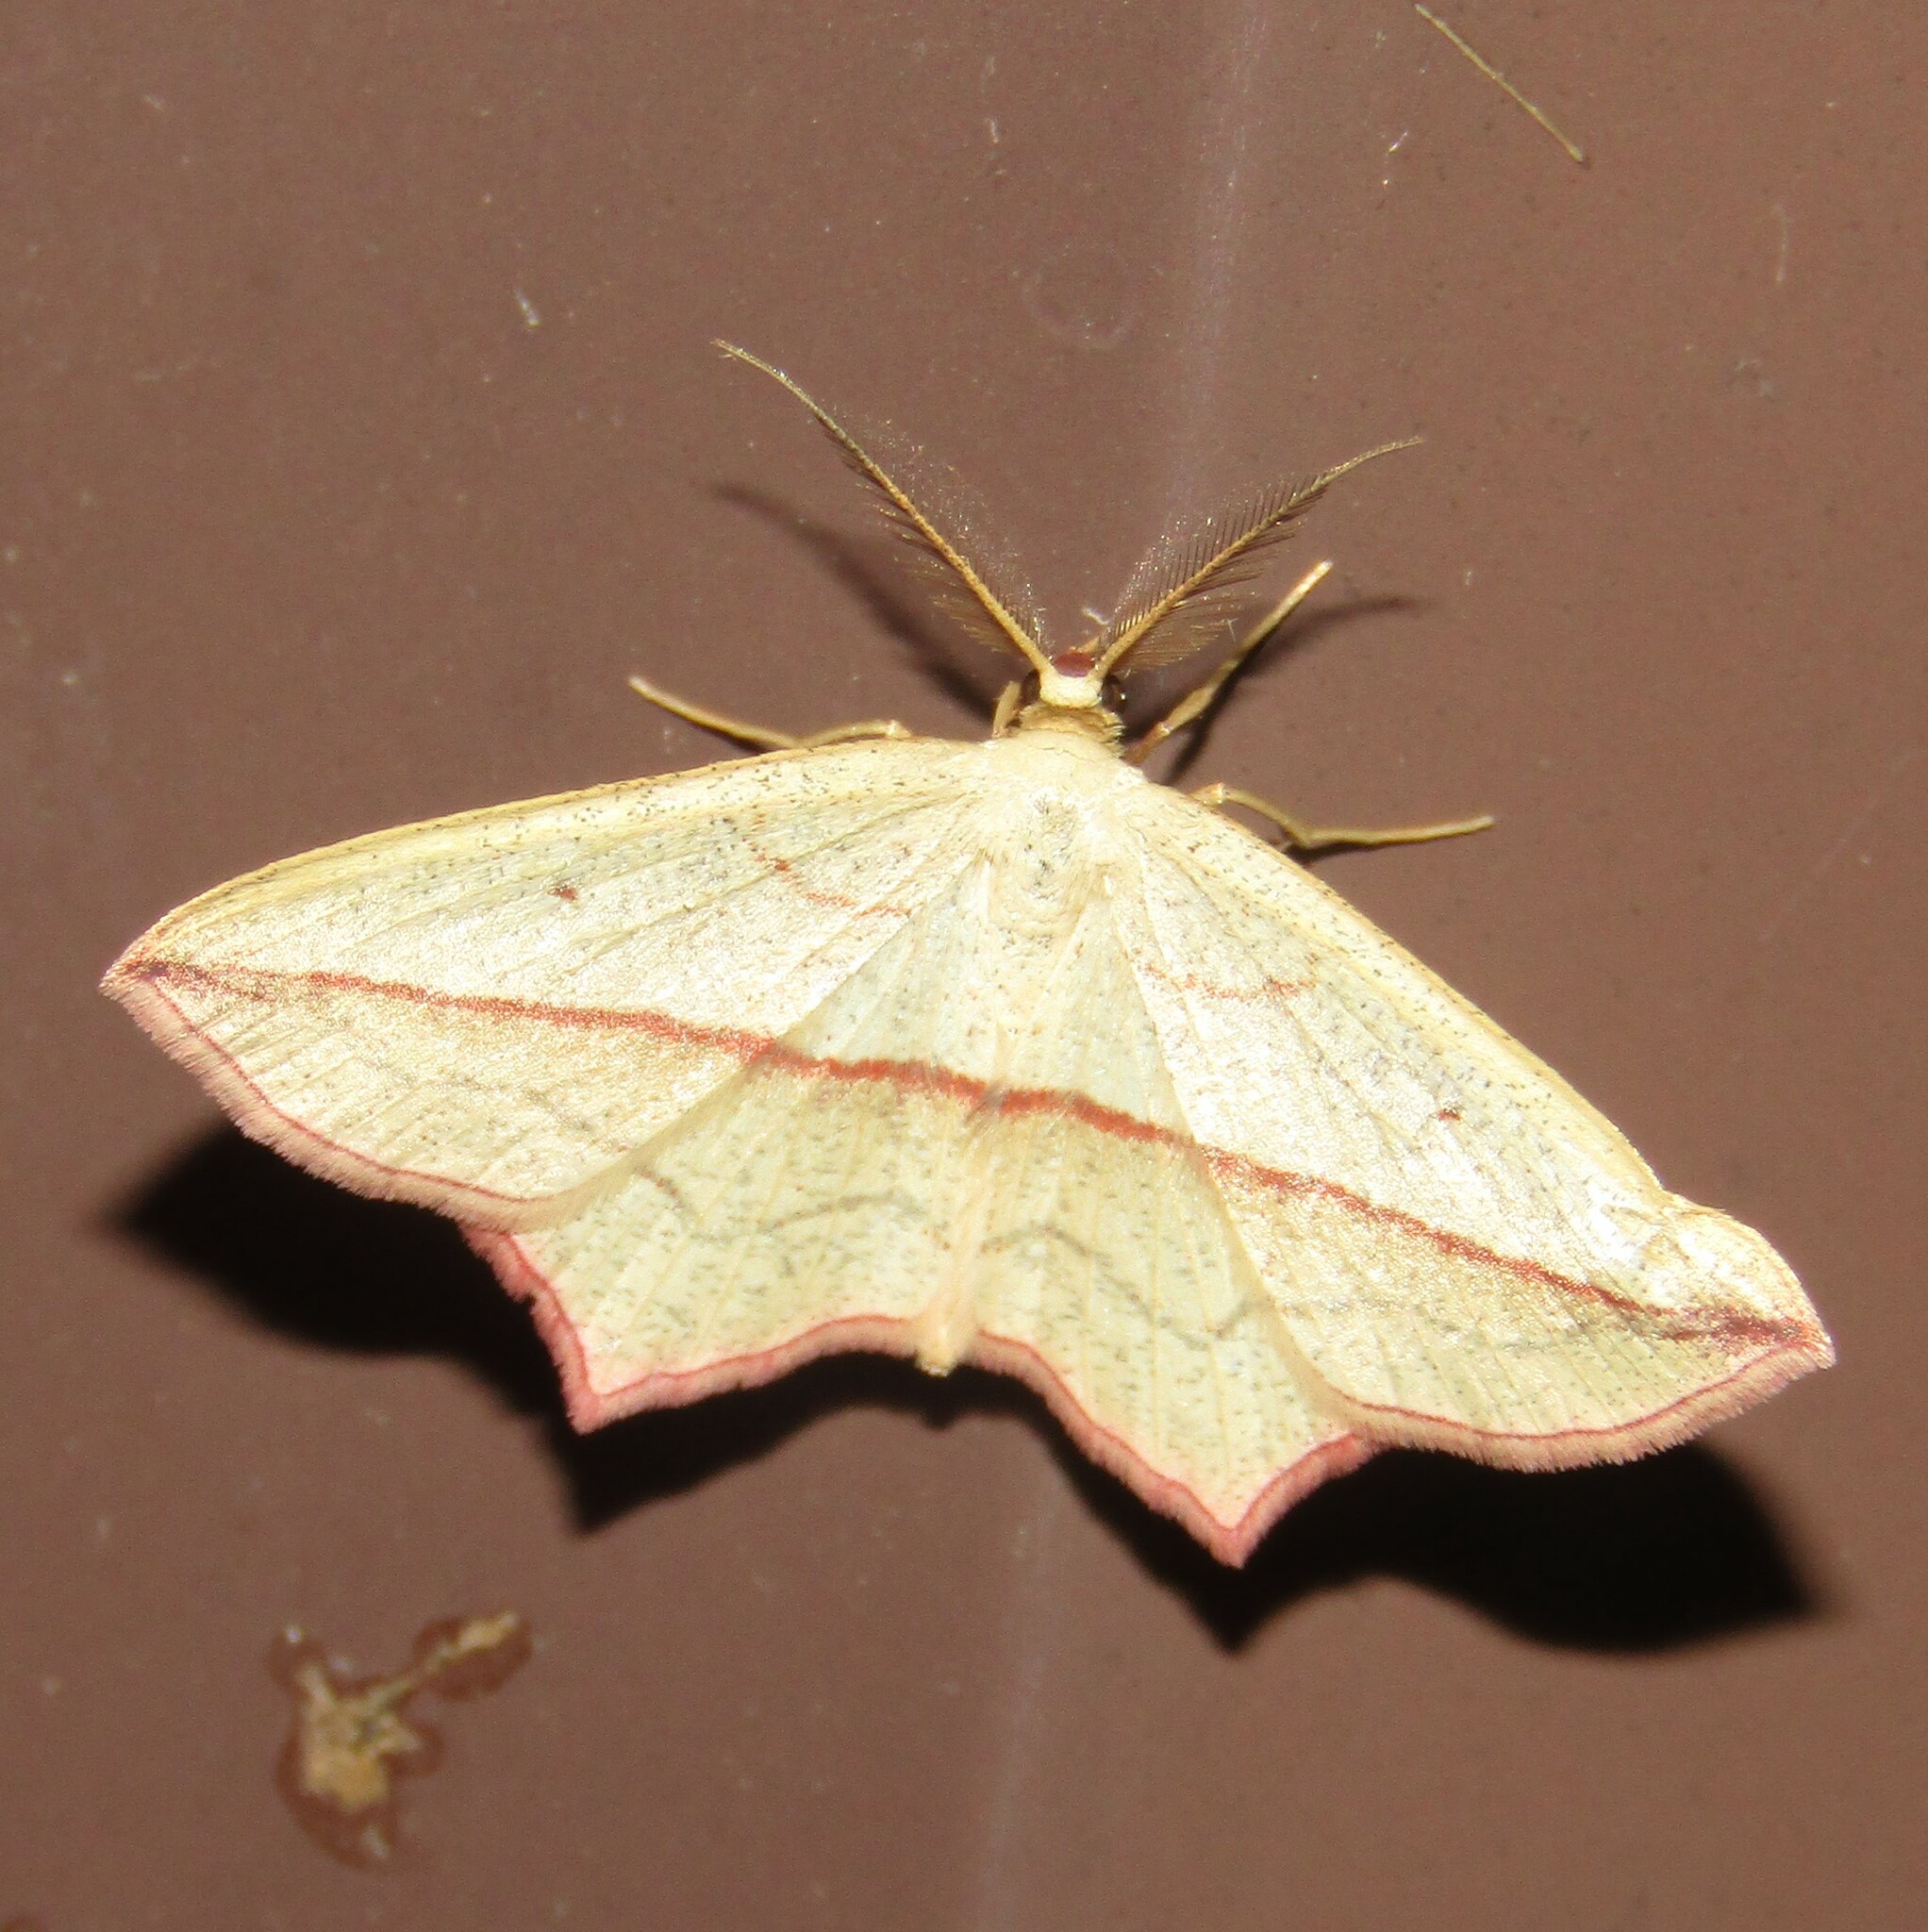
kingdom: Animalia
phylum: Arthropoda
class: Insecta
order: Lepidoptera
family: Geometridae
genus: Timandra
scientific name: Timandra comae
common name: Blood-vein
